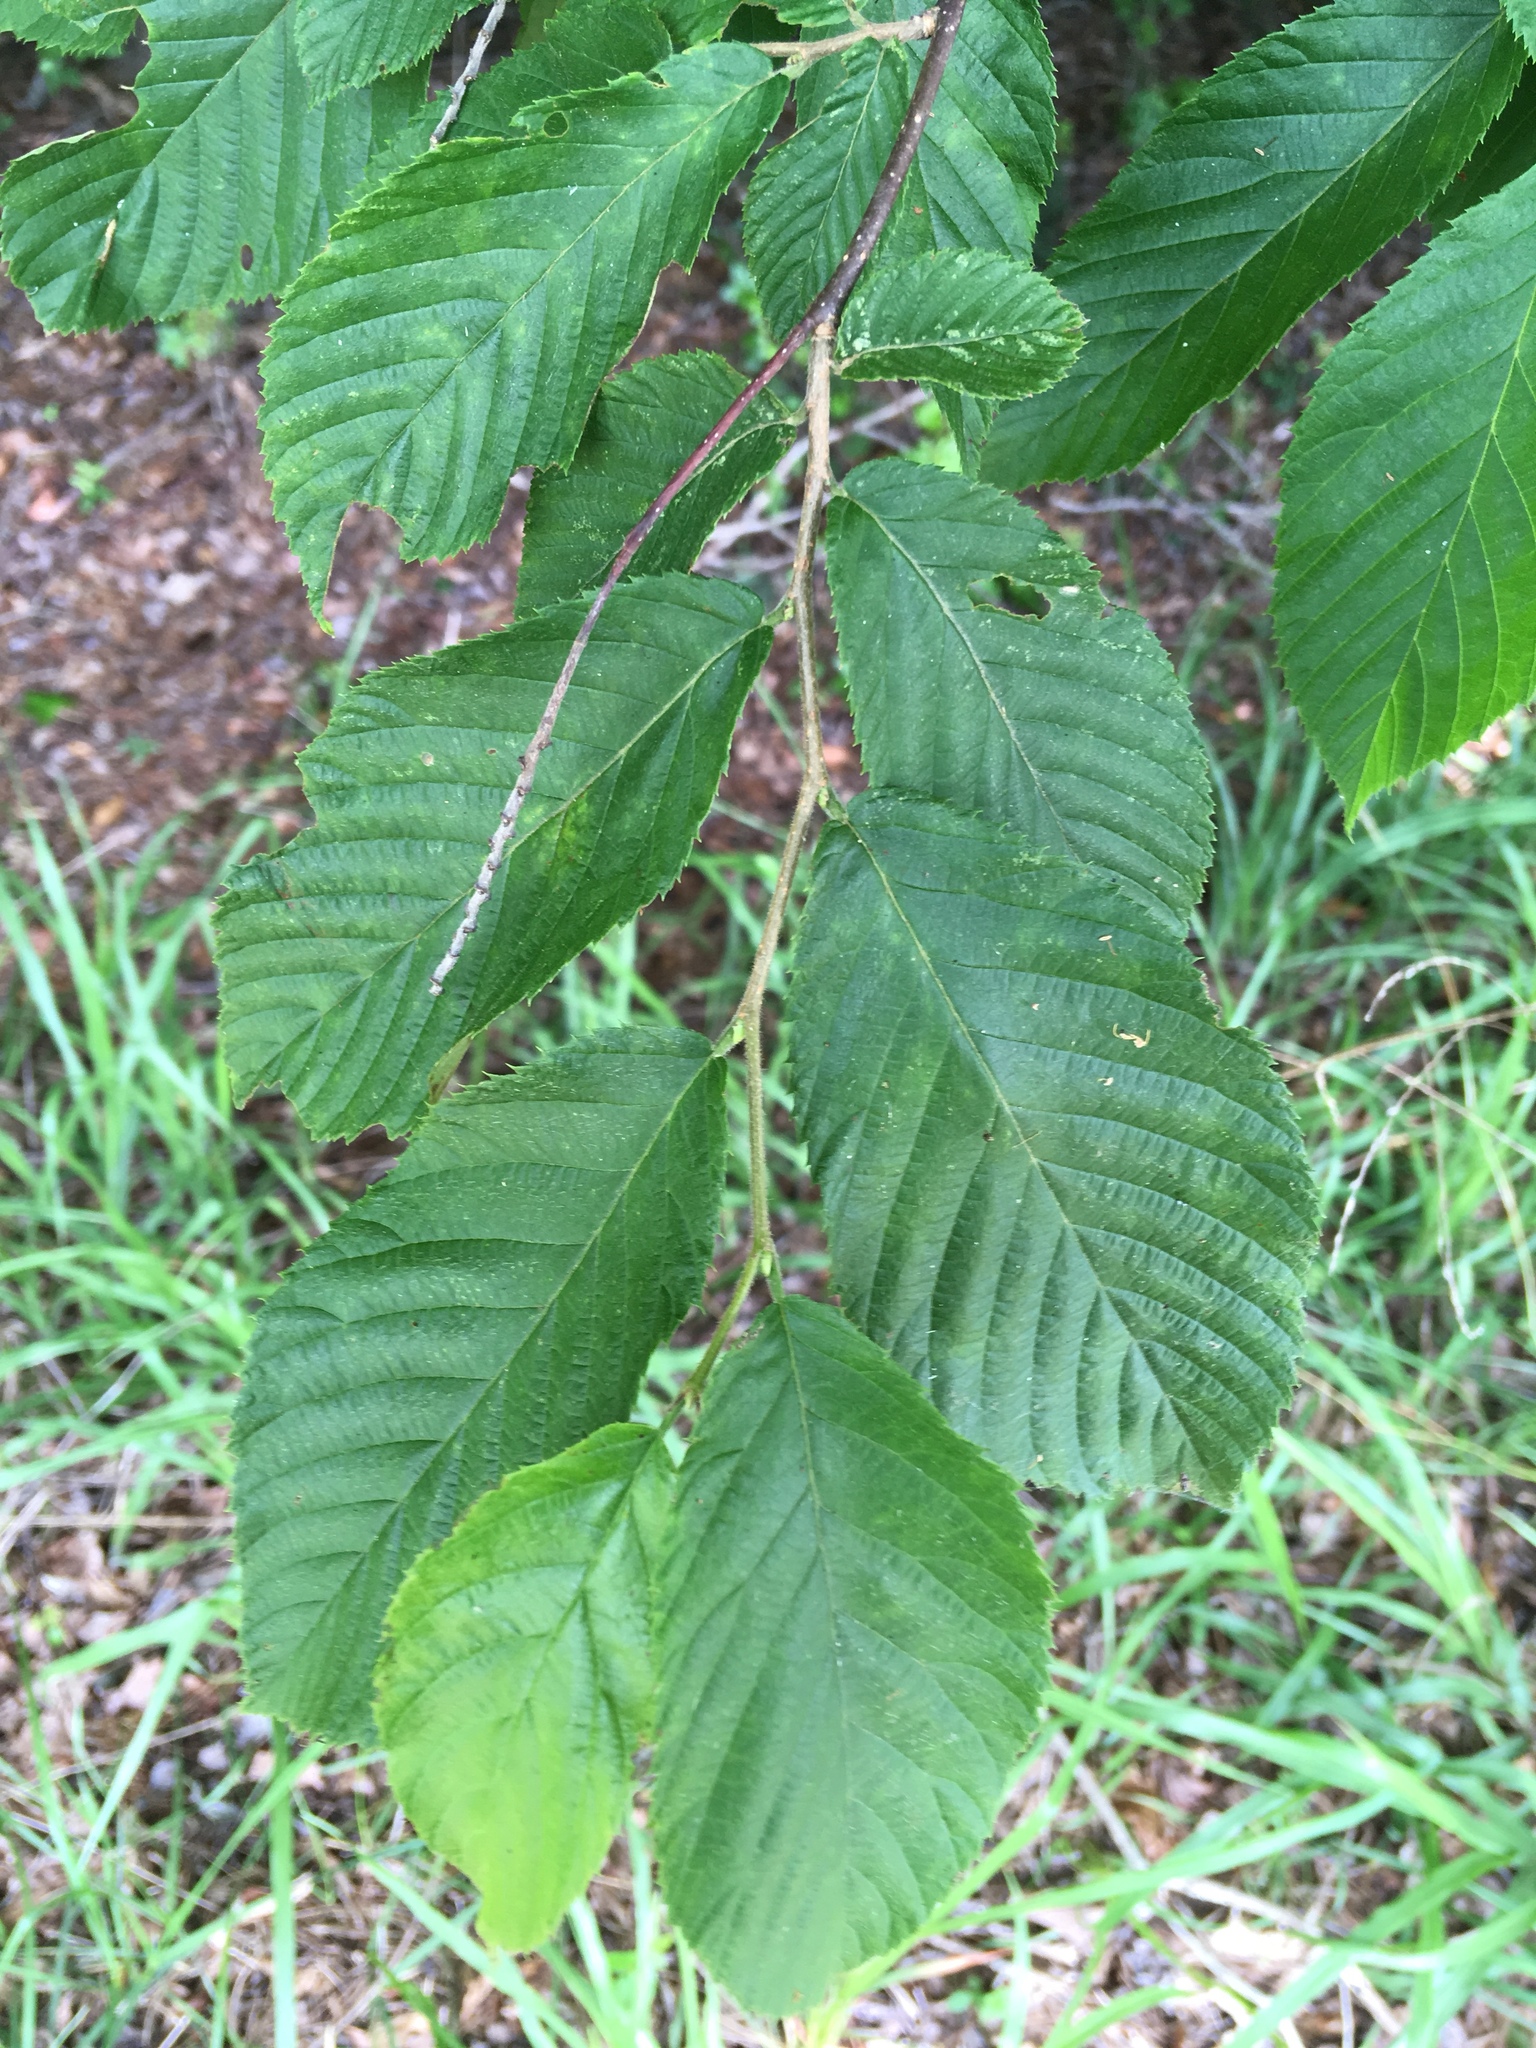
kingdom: Plantae
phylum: Tracheophyta
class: Magnoliopsida
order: Fagales
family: Betulaceae
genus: Ostrya
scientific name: Ostrya virginiana
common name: Ironwood
